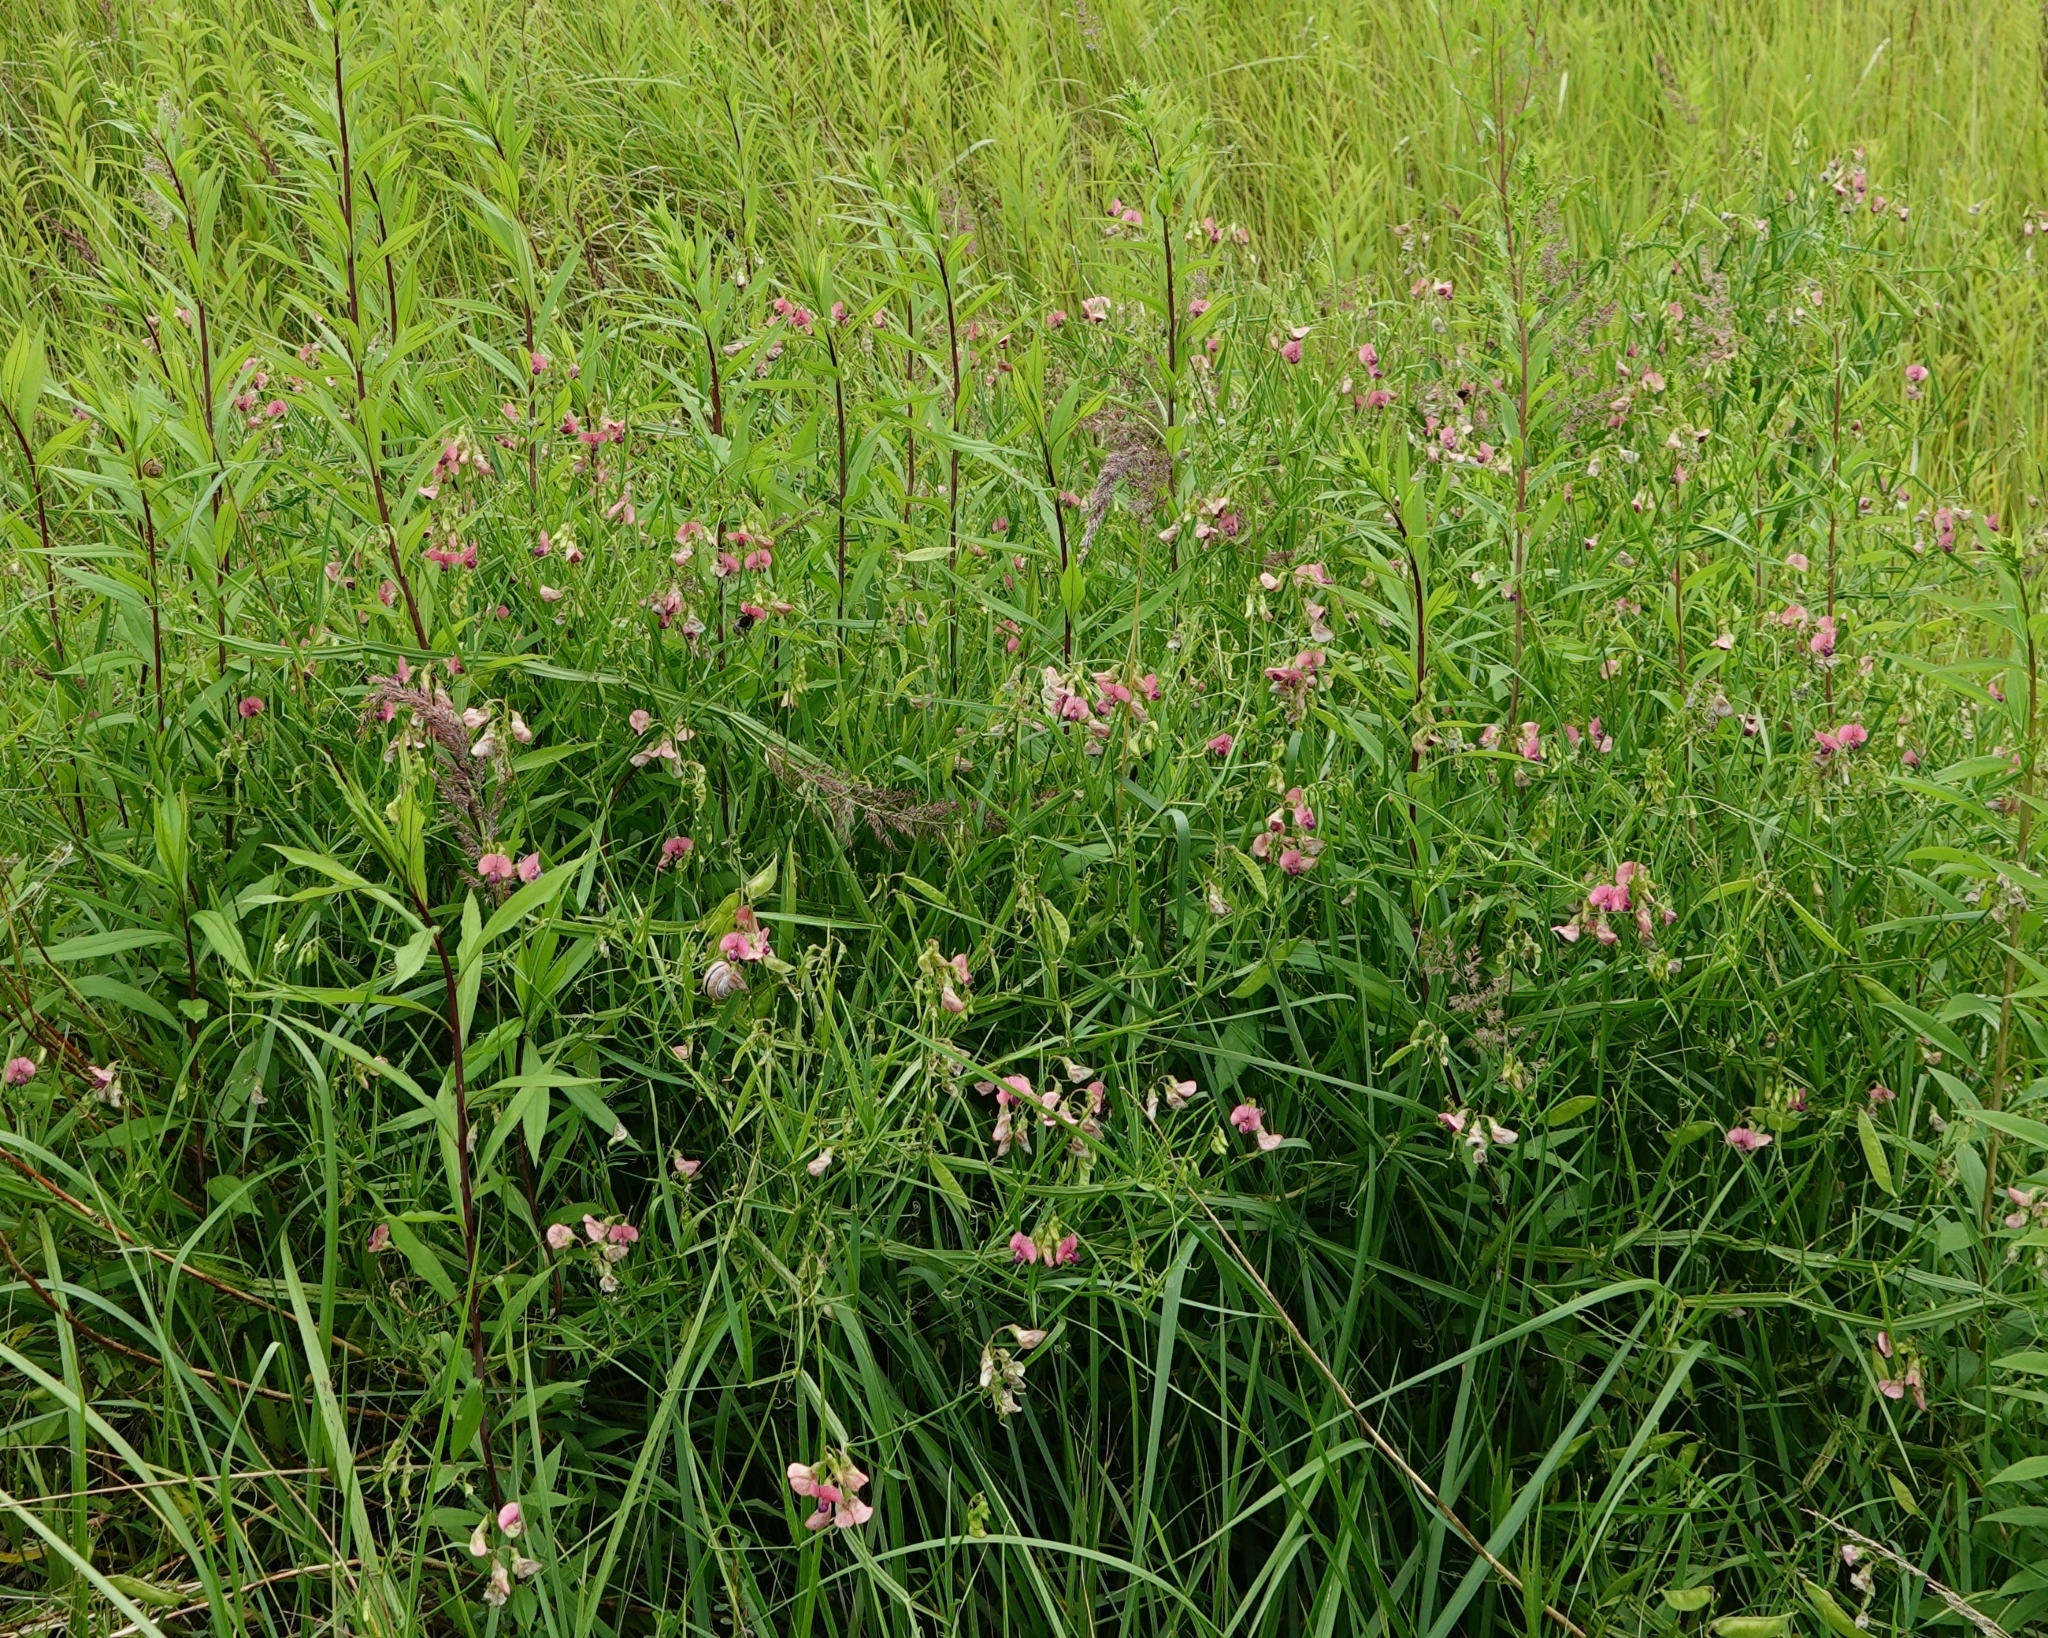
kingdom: Plantae
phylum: Tracheophyta
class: Magnoliopsida
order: Fabales
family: Fabaceae
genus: Lathyrus
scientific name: Lathyrus sylvestris
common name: Flat pea
